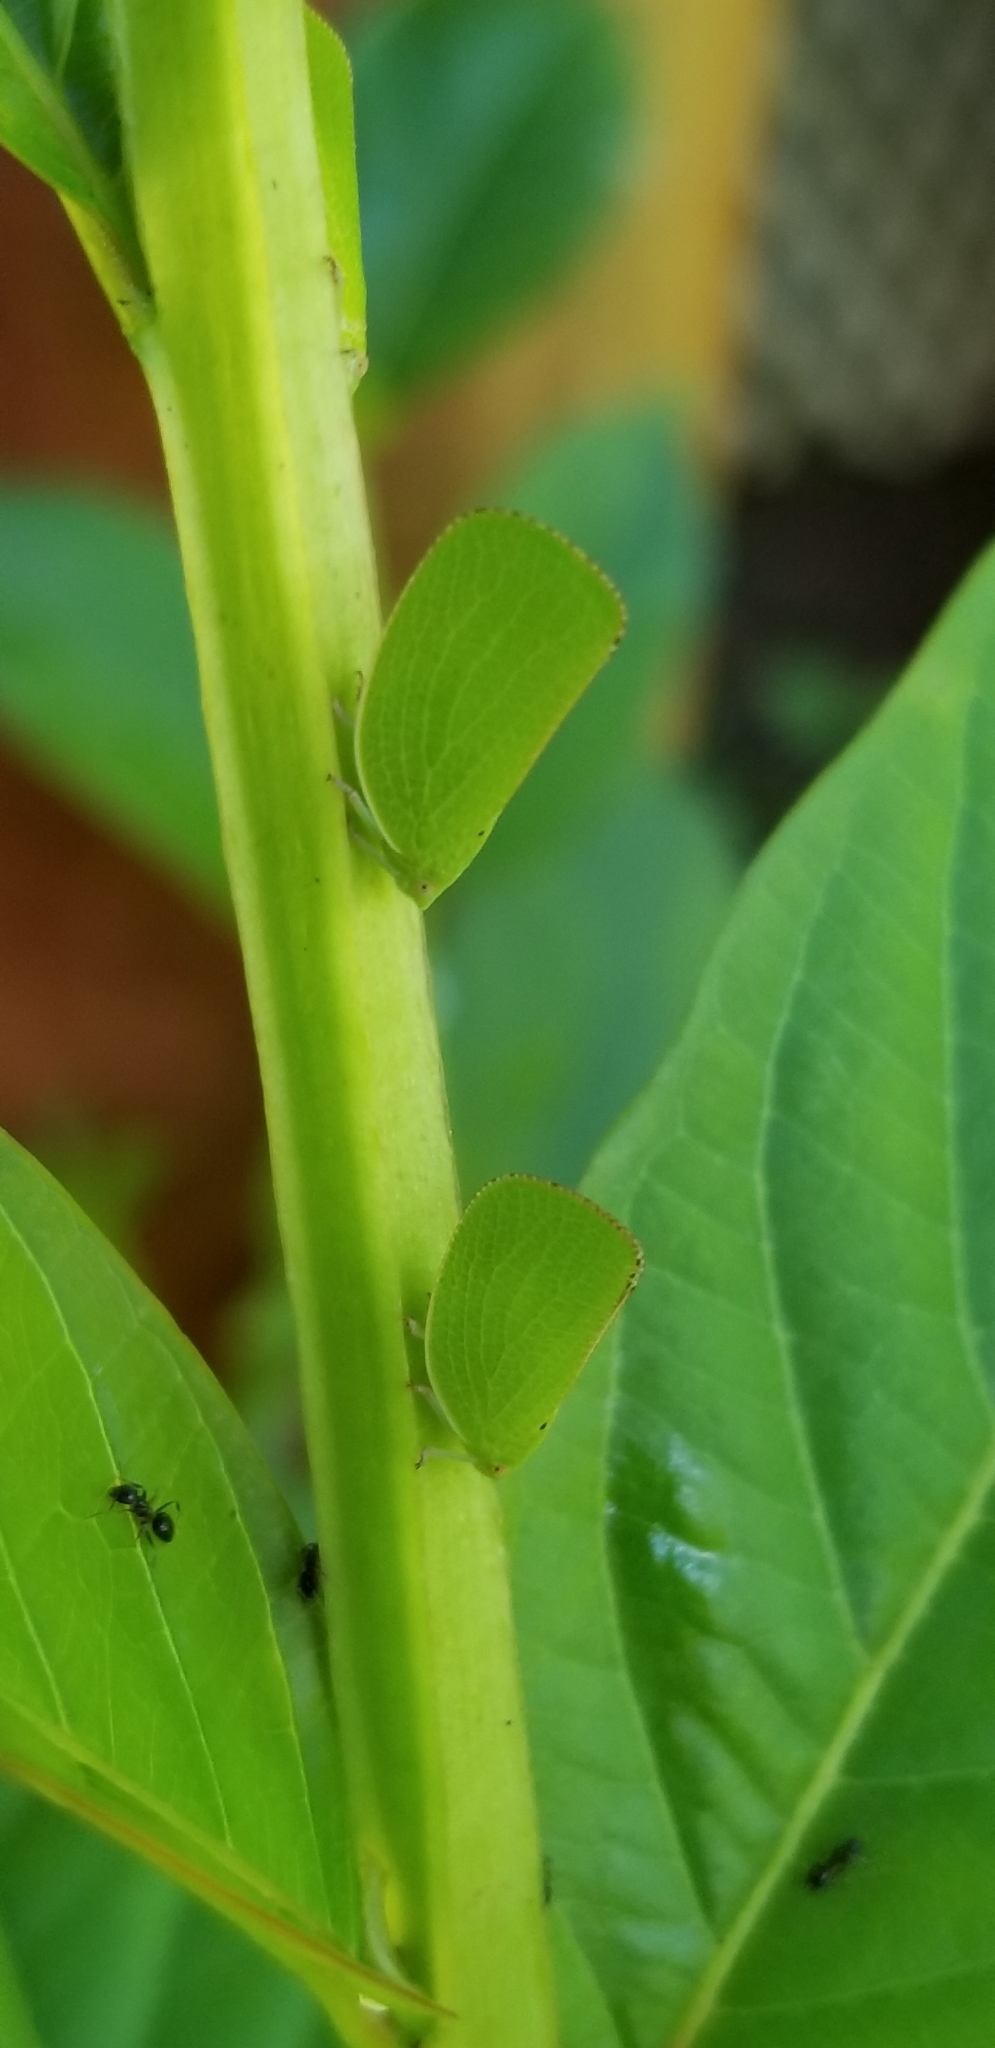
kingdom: Animalia
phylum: Arthropoda
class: Insecta
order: Hemiptera
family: Acanaloniidae
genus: Acanalonia
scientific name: Acanalonia conica
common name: Green cone-headed planthopper
